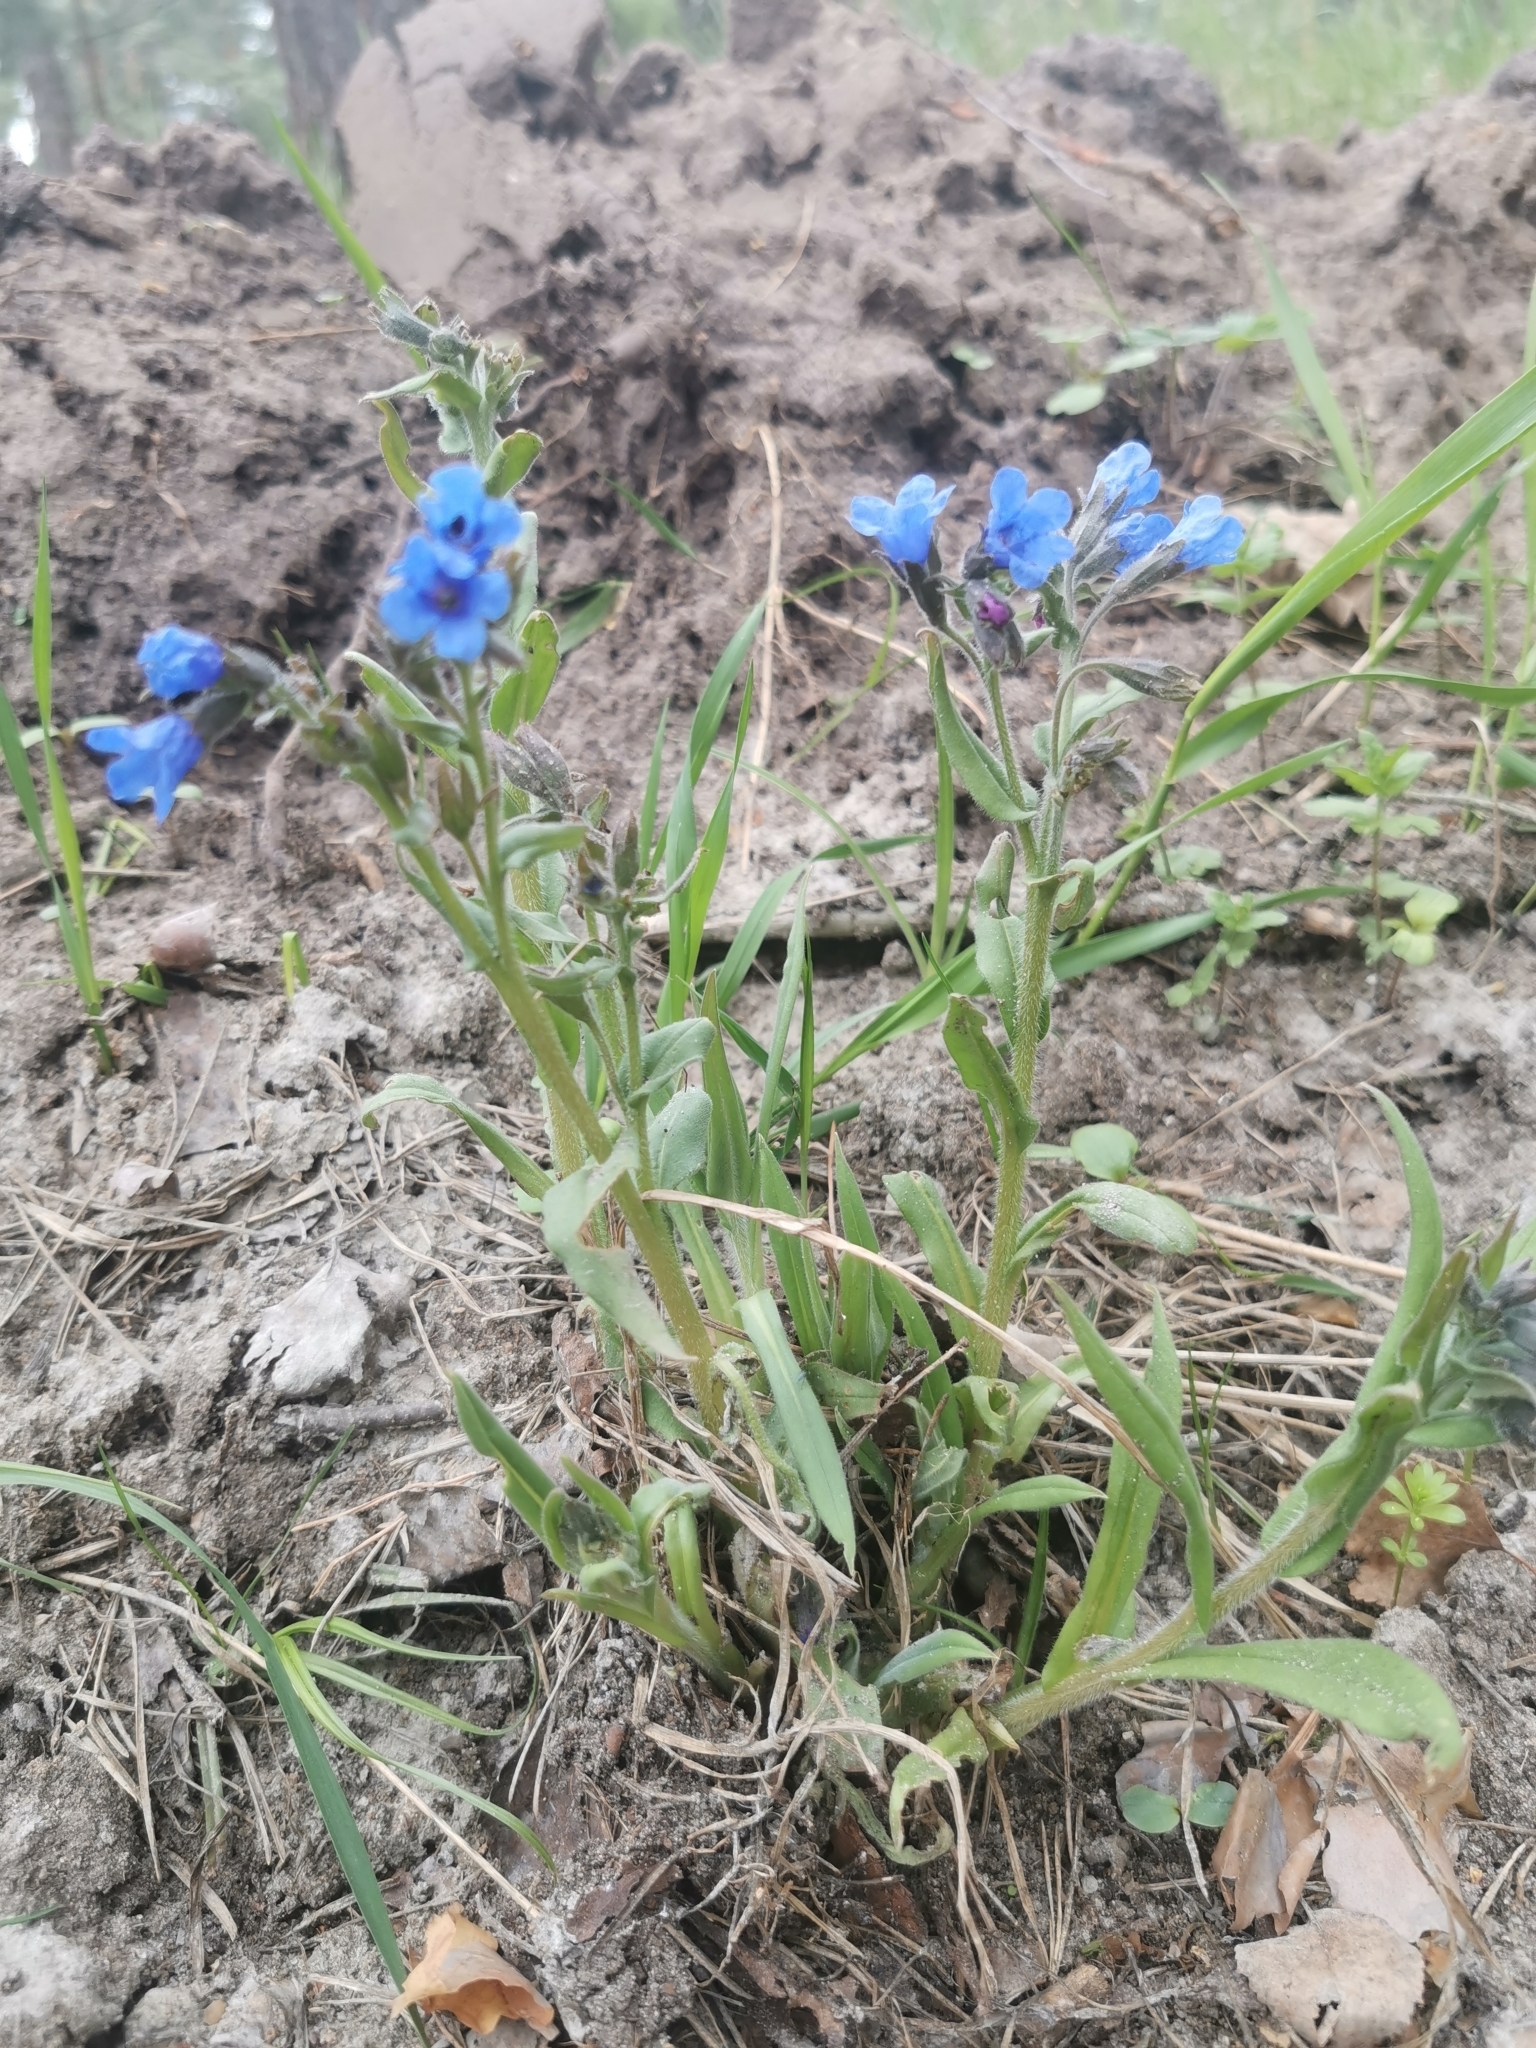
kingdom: Plantae
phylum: Tracheophyta
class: Magnoliopsida
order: Boraginales
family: Boraginaceae
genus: Pulmonaria
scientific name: Pulmonaria angustifolia
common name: Blue cowslip
